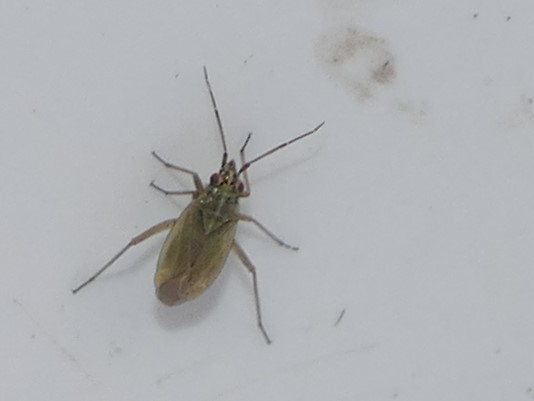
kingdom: Animalia
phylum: Arthropoda
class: Insecta
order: Hemiptera
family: Miridae
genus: Thermocoris
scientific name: Thermocoris munieri
